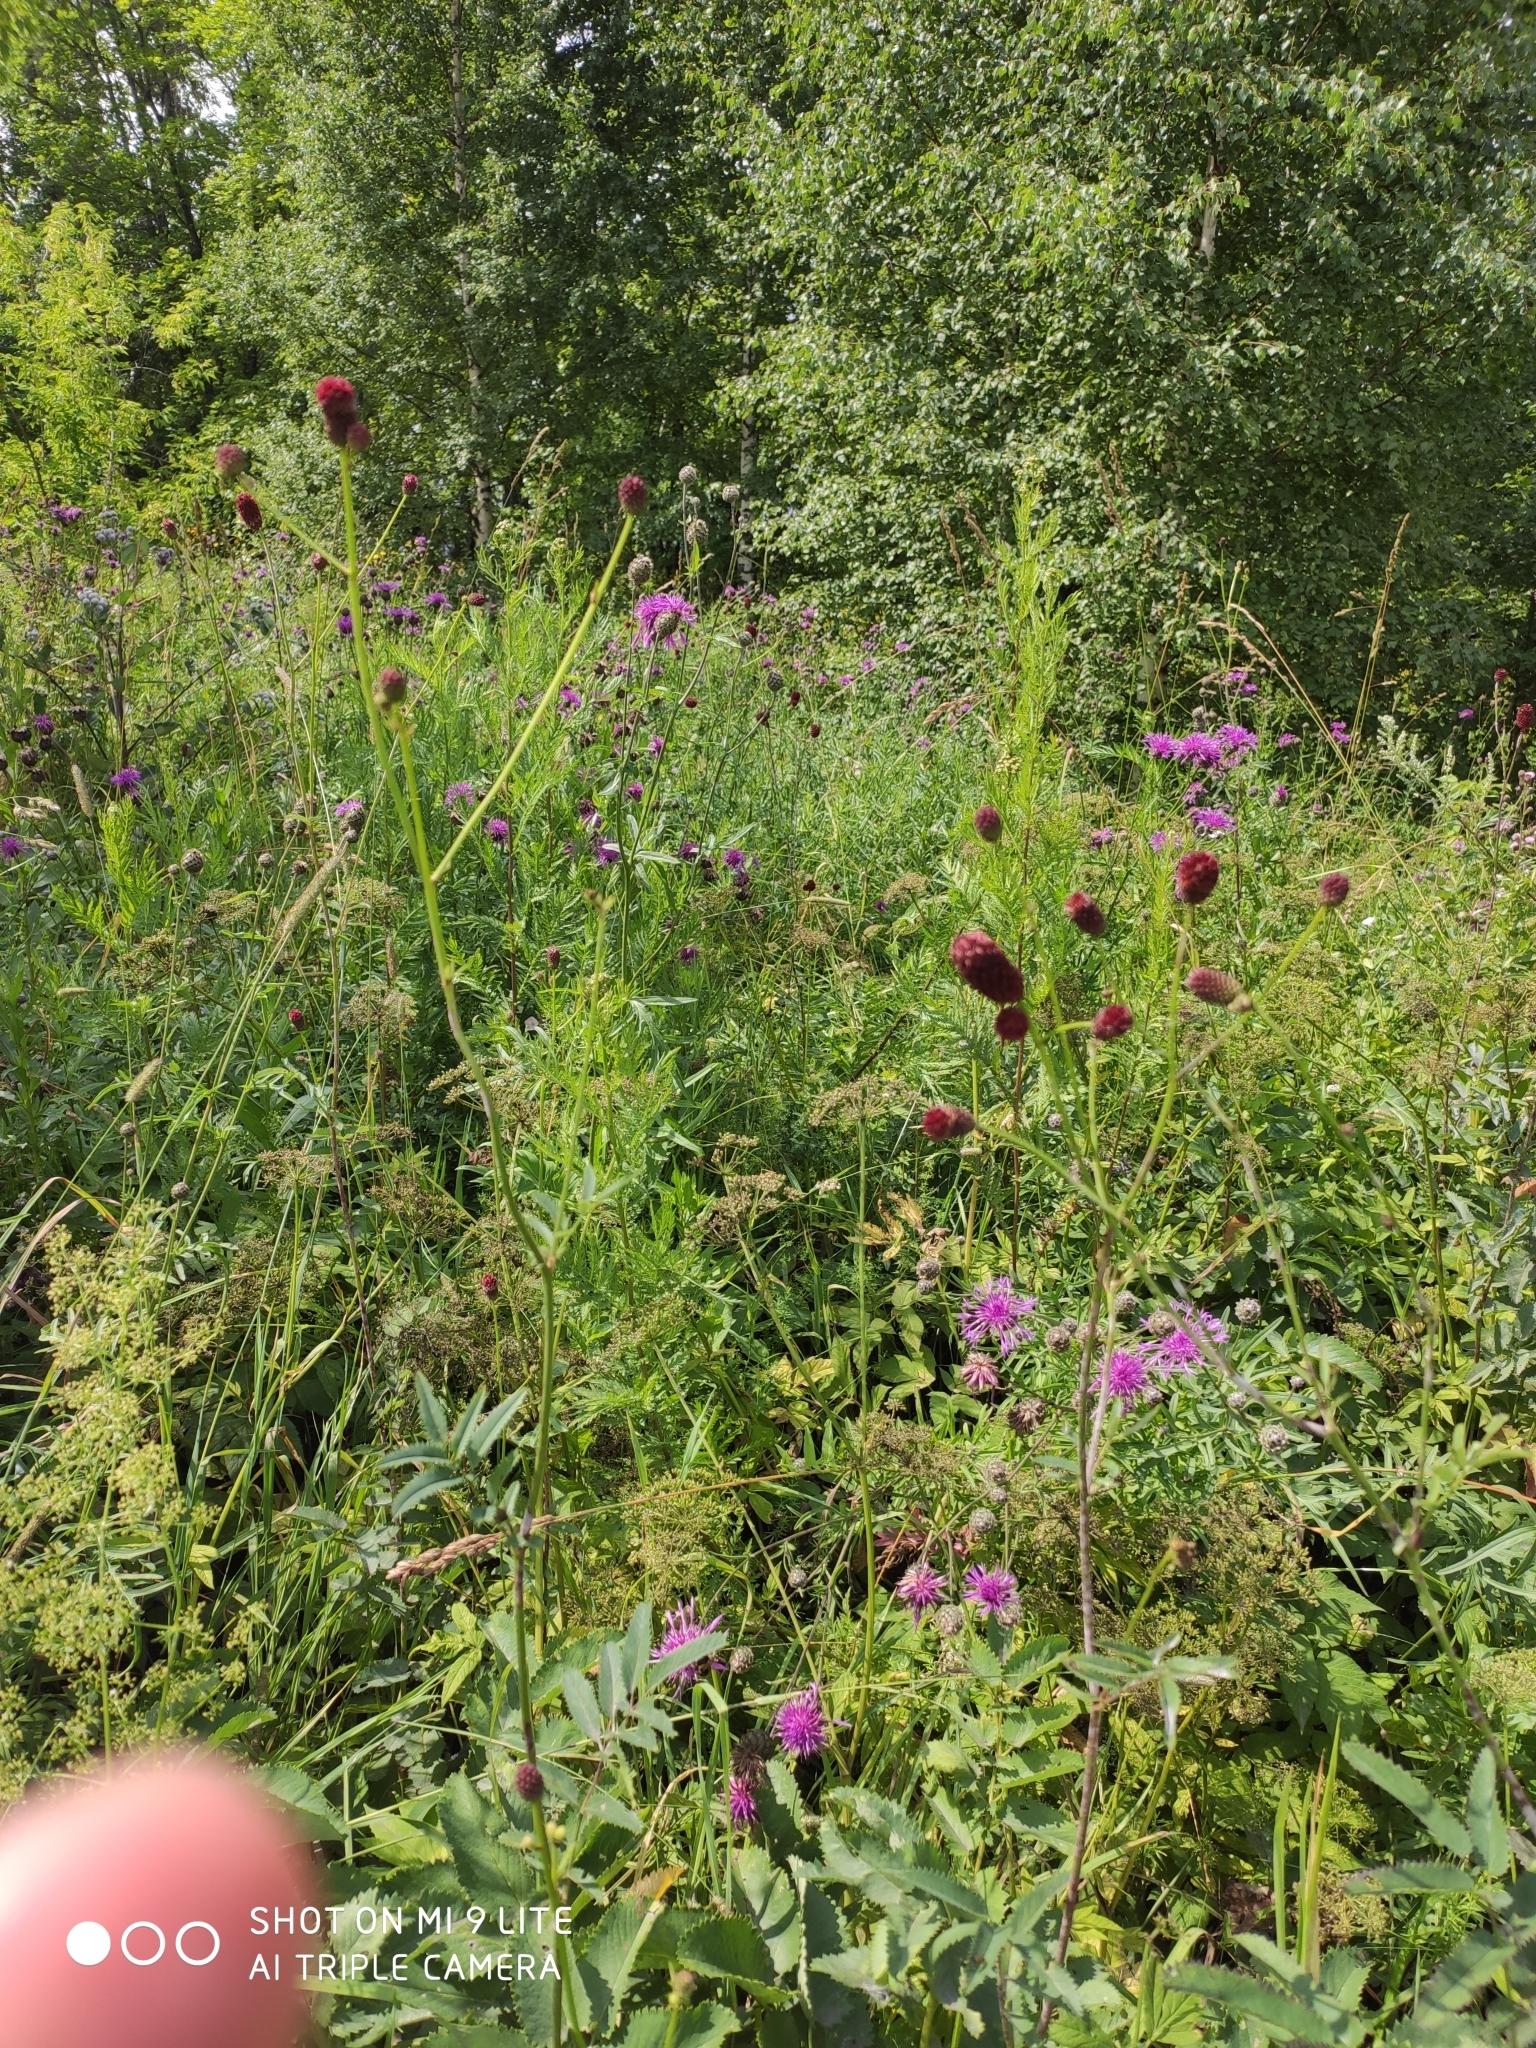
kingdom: Plantae
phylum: Tracheophyta
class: Magnoliopsida
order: Rosales
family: Rosaceae
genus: Sanguisorba
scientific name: Sanguisorba officinalis
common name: Great burnet
